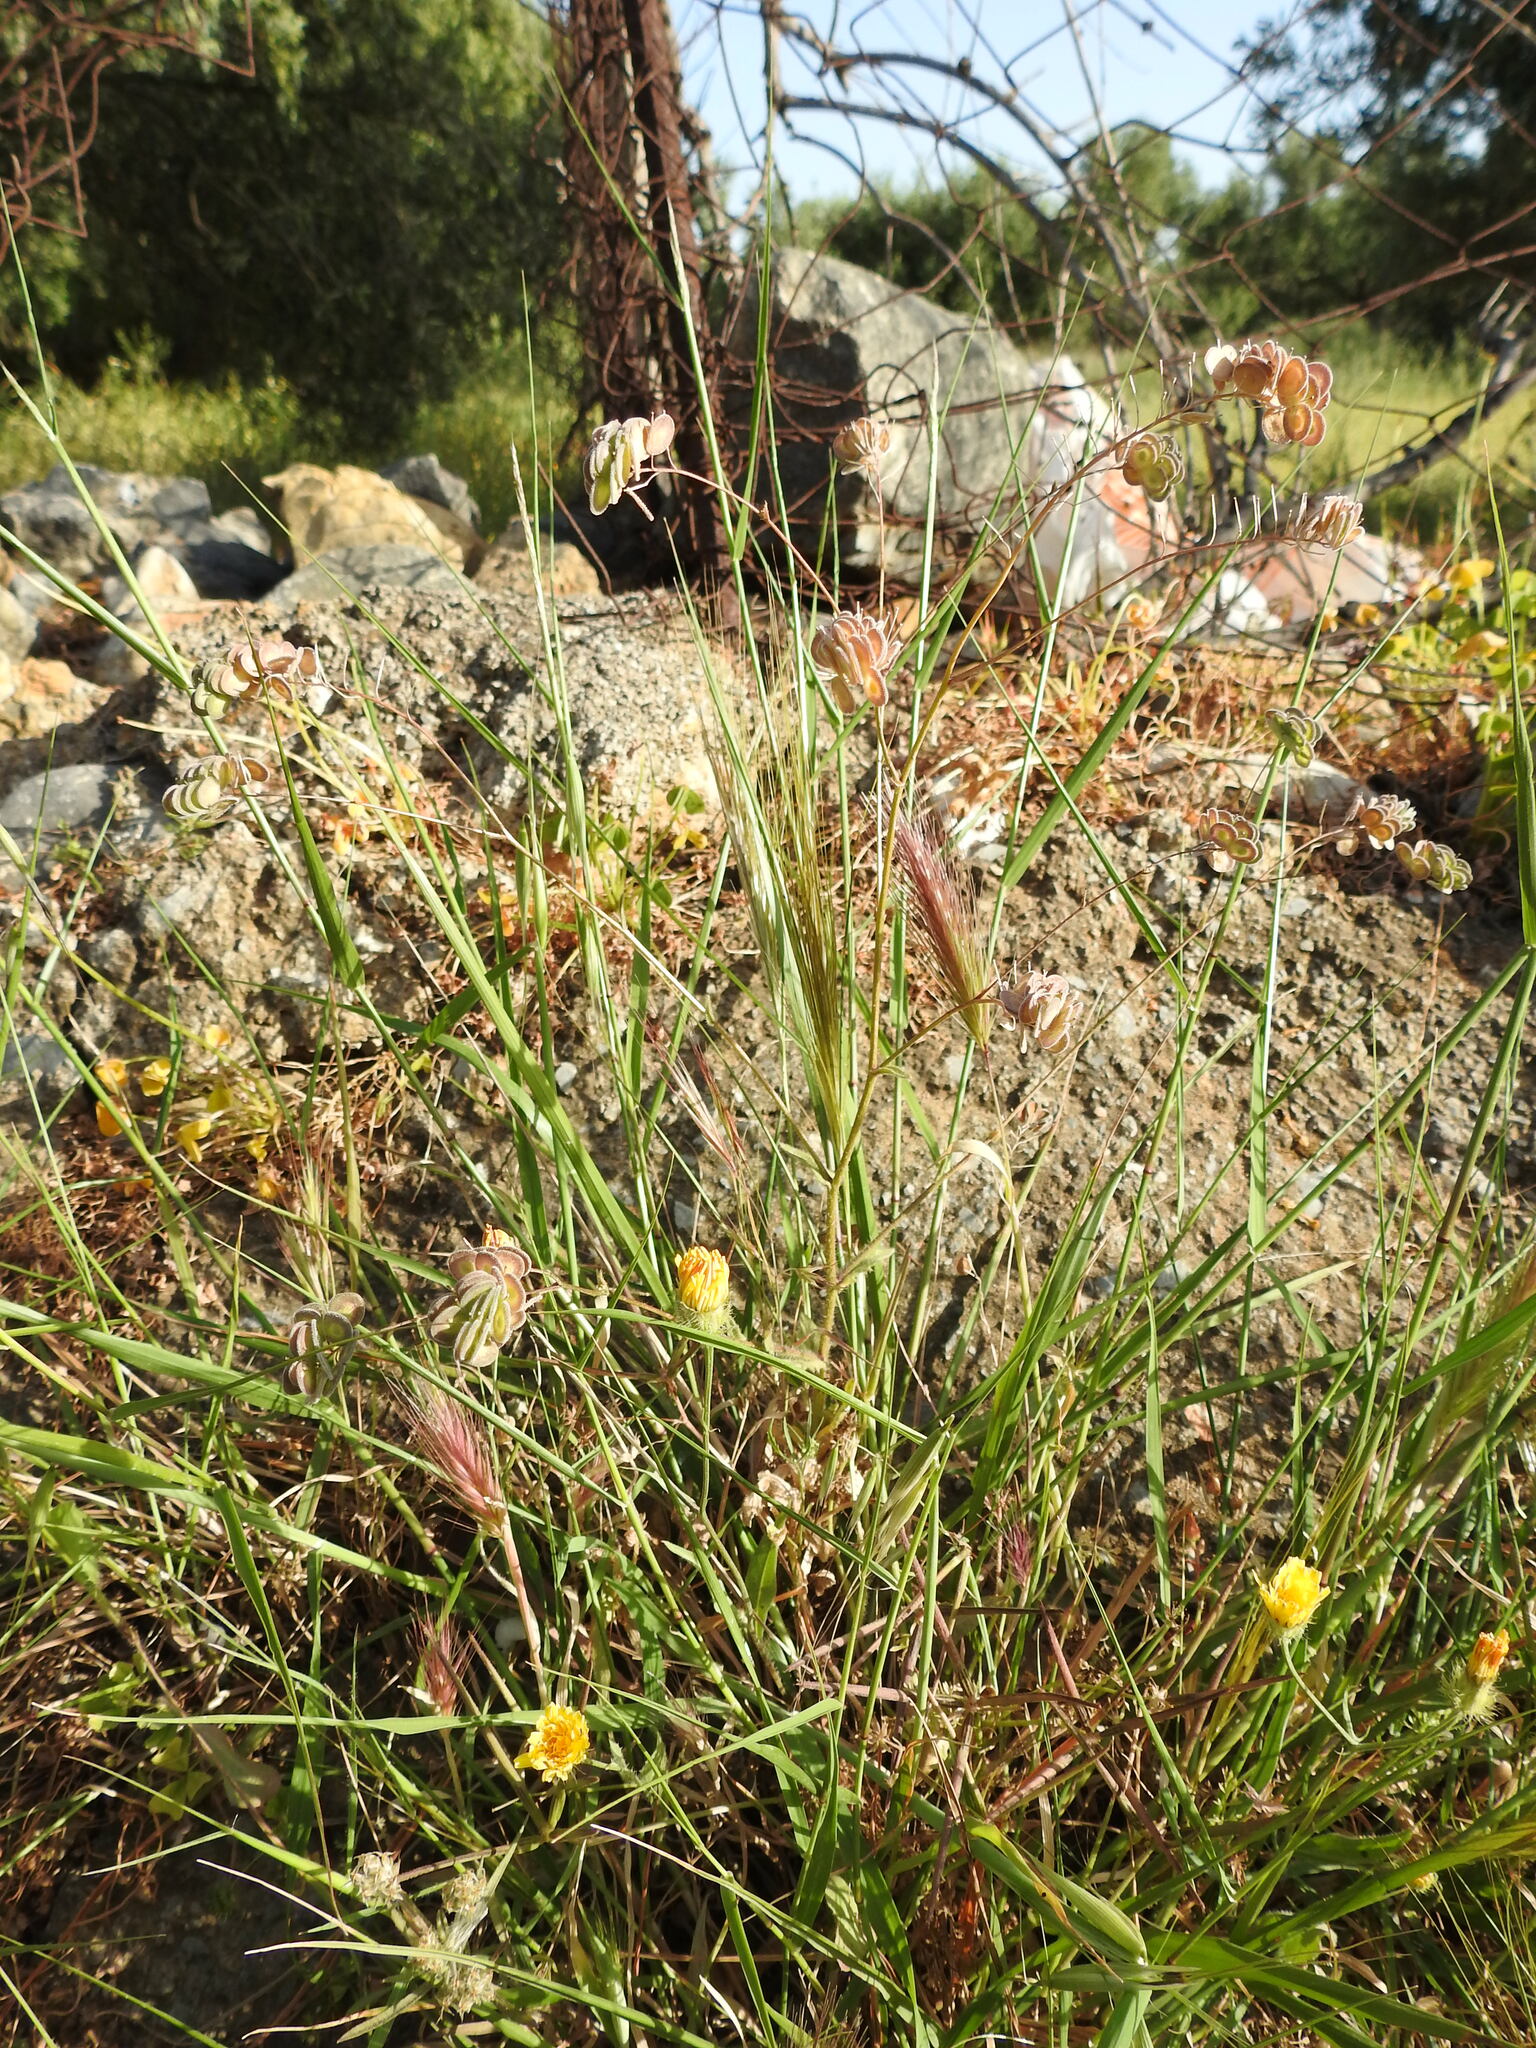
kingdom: Plantae
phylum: Tracheophyta
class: Magnoliopsida
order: Brassicales
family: Brassicaceae
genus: Biscutella
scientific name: Biscutella didyma
